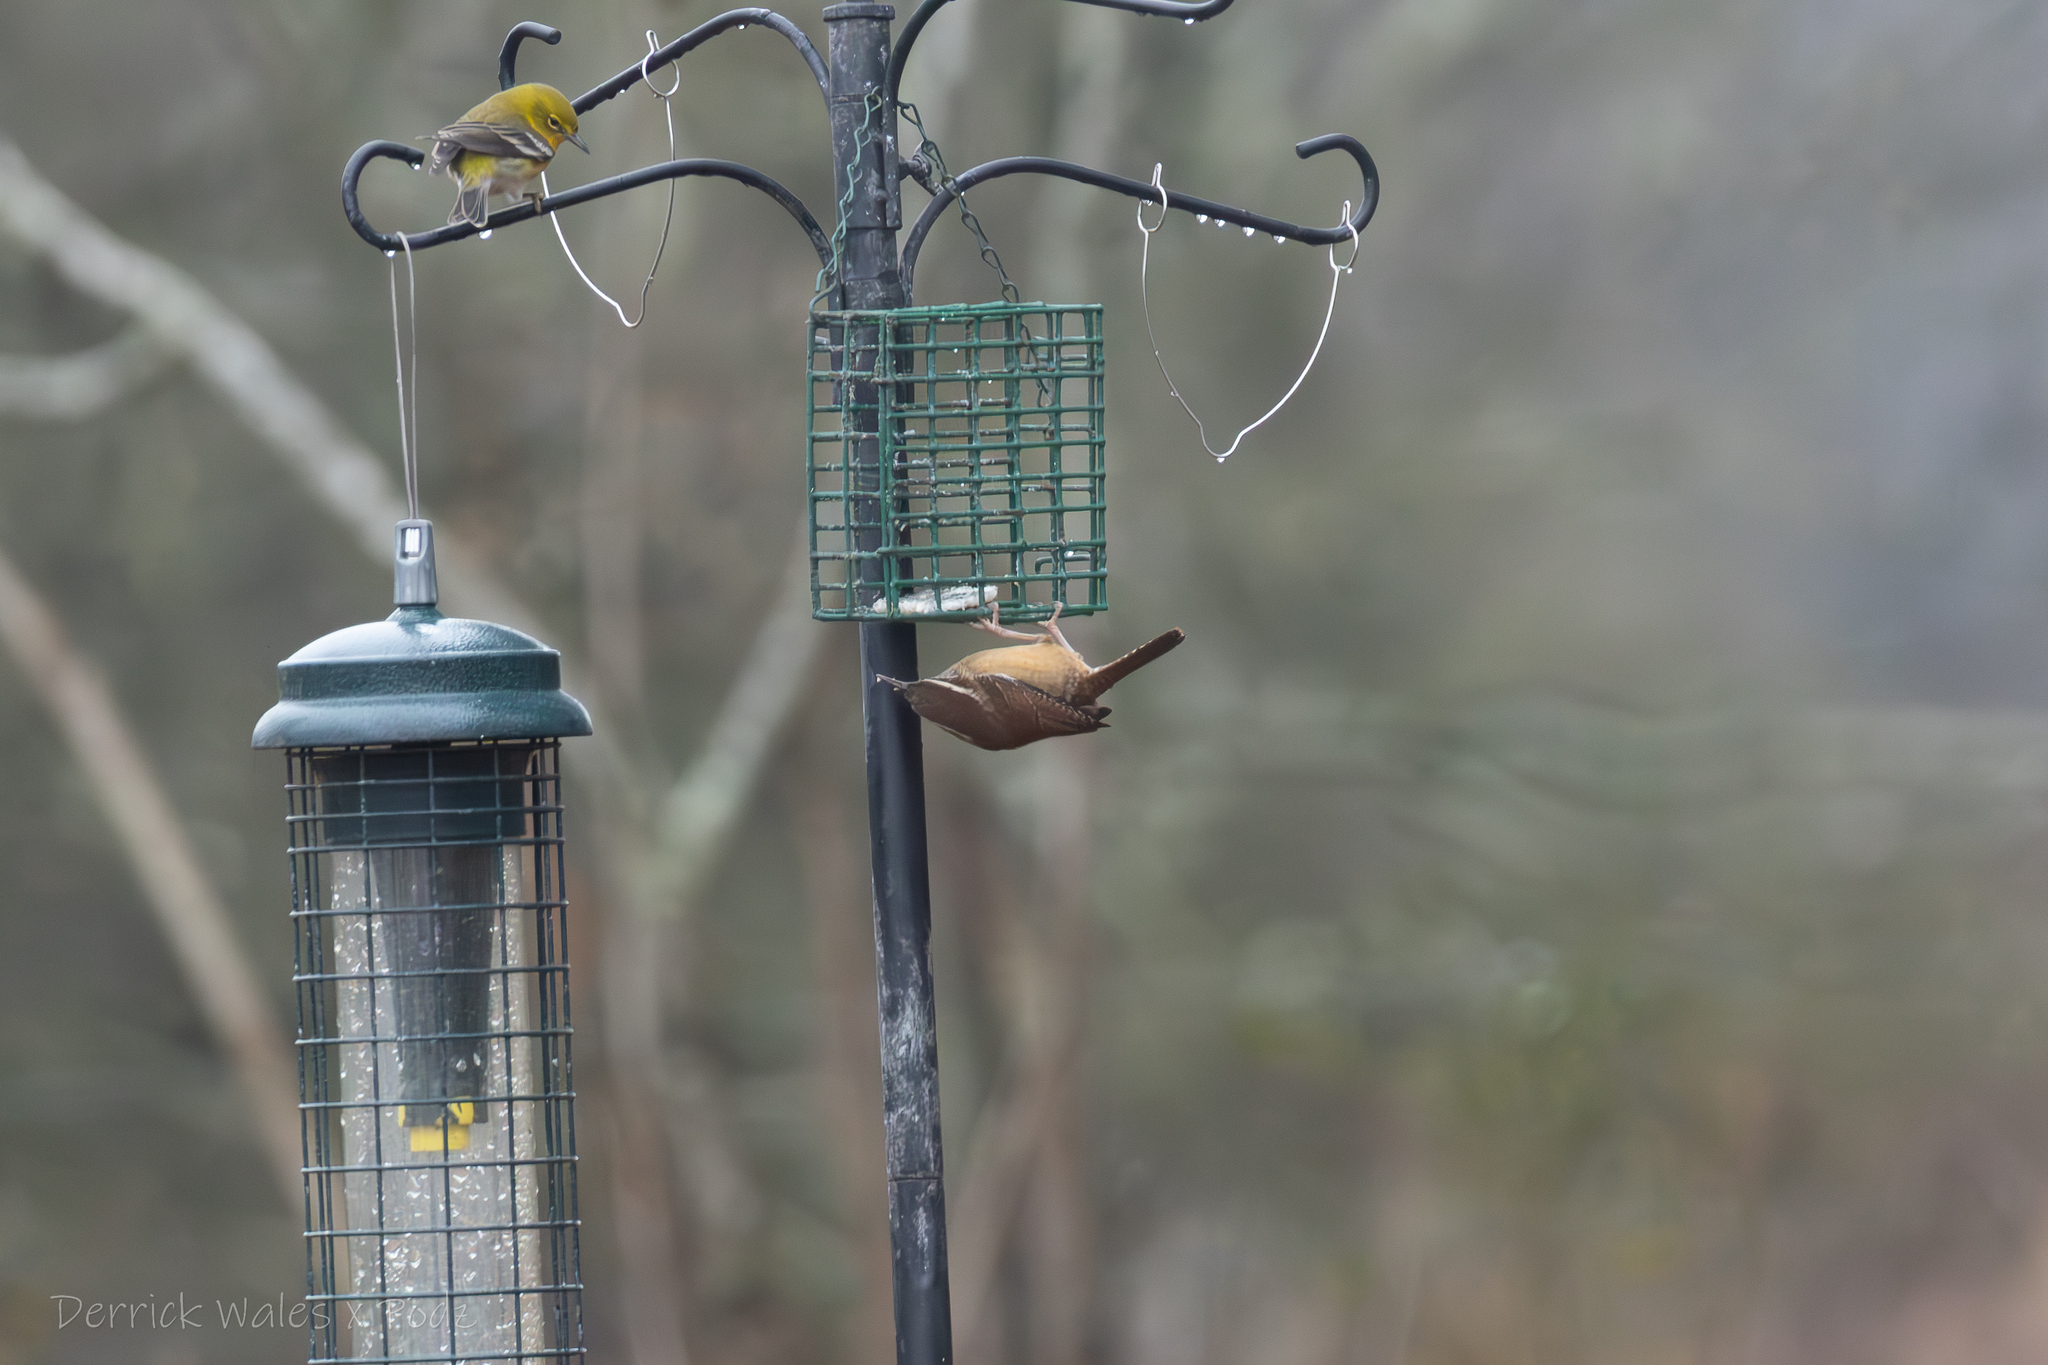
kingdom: Animalia
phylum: Chordata
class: Aves
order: Passeriformes
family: Troglodytidae
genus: Thryothorus
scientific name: Thryothorus ludovicianus
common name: Carolina wren
